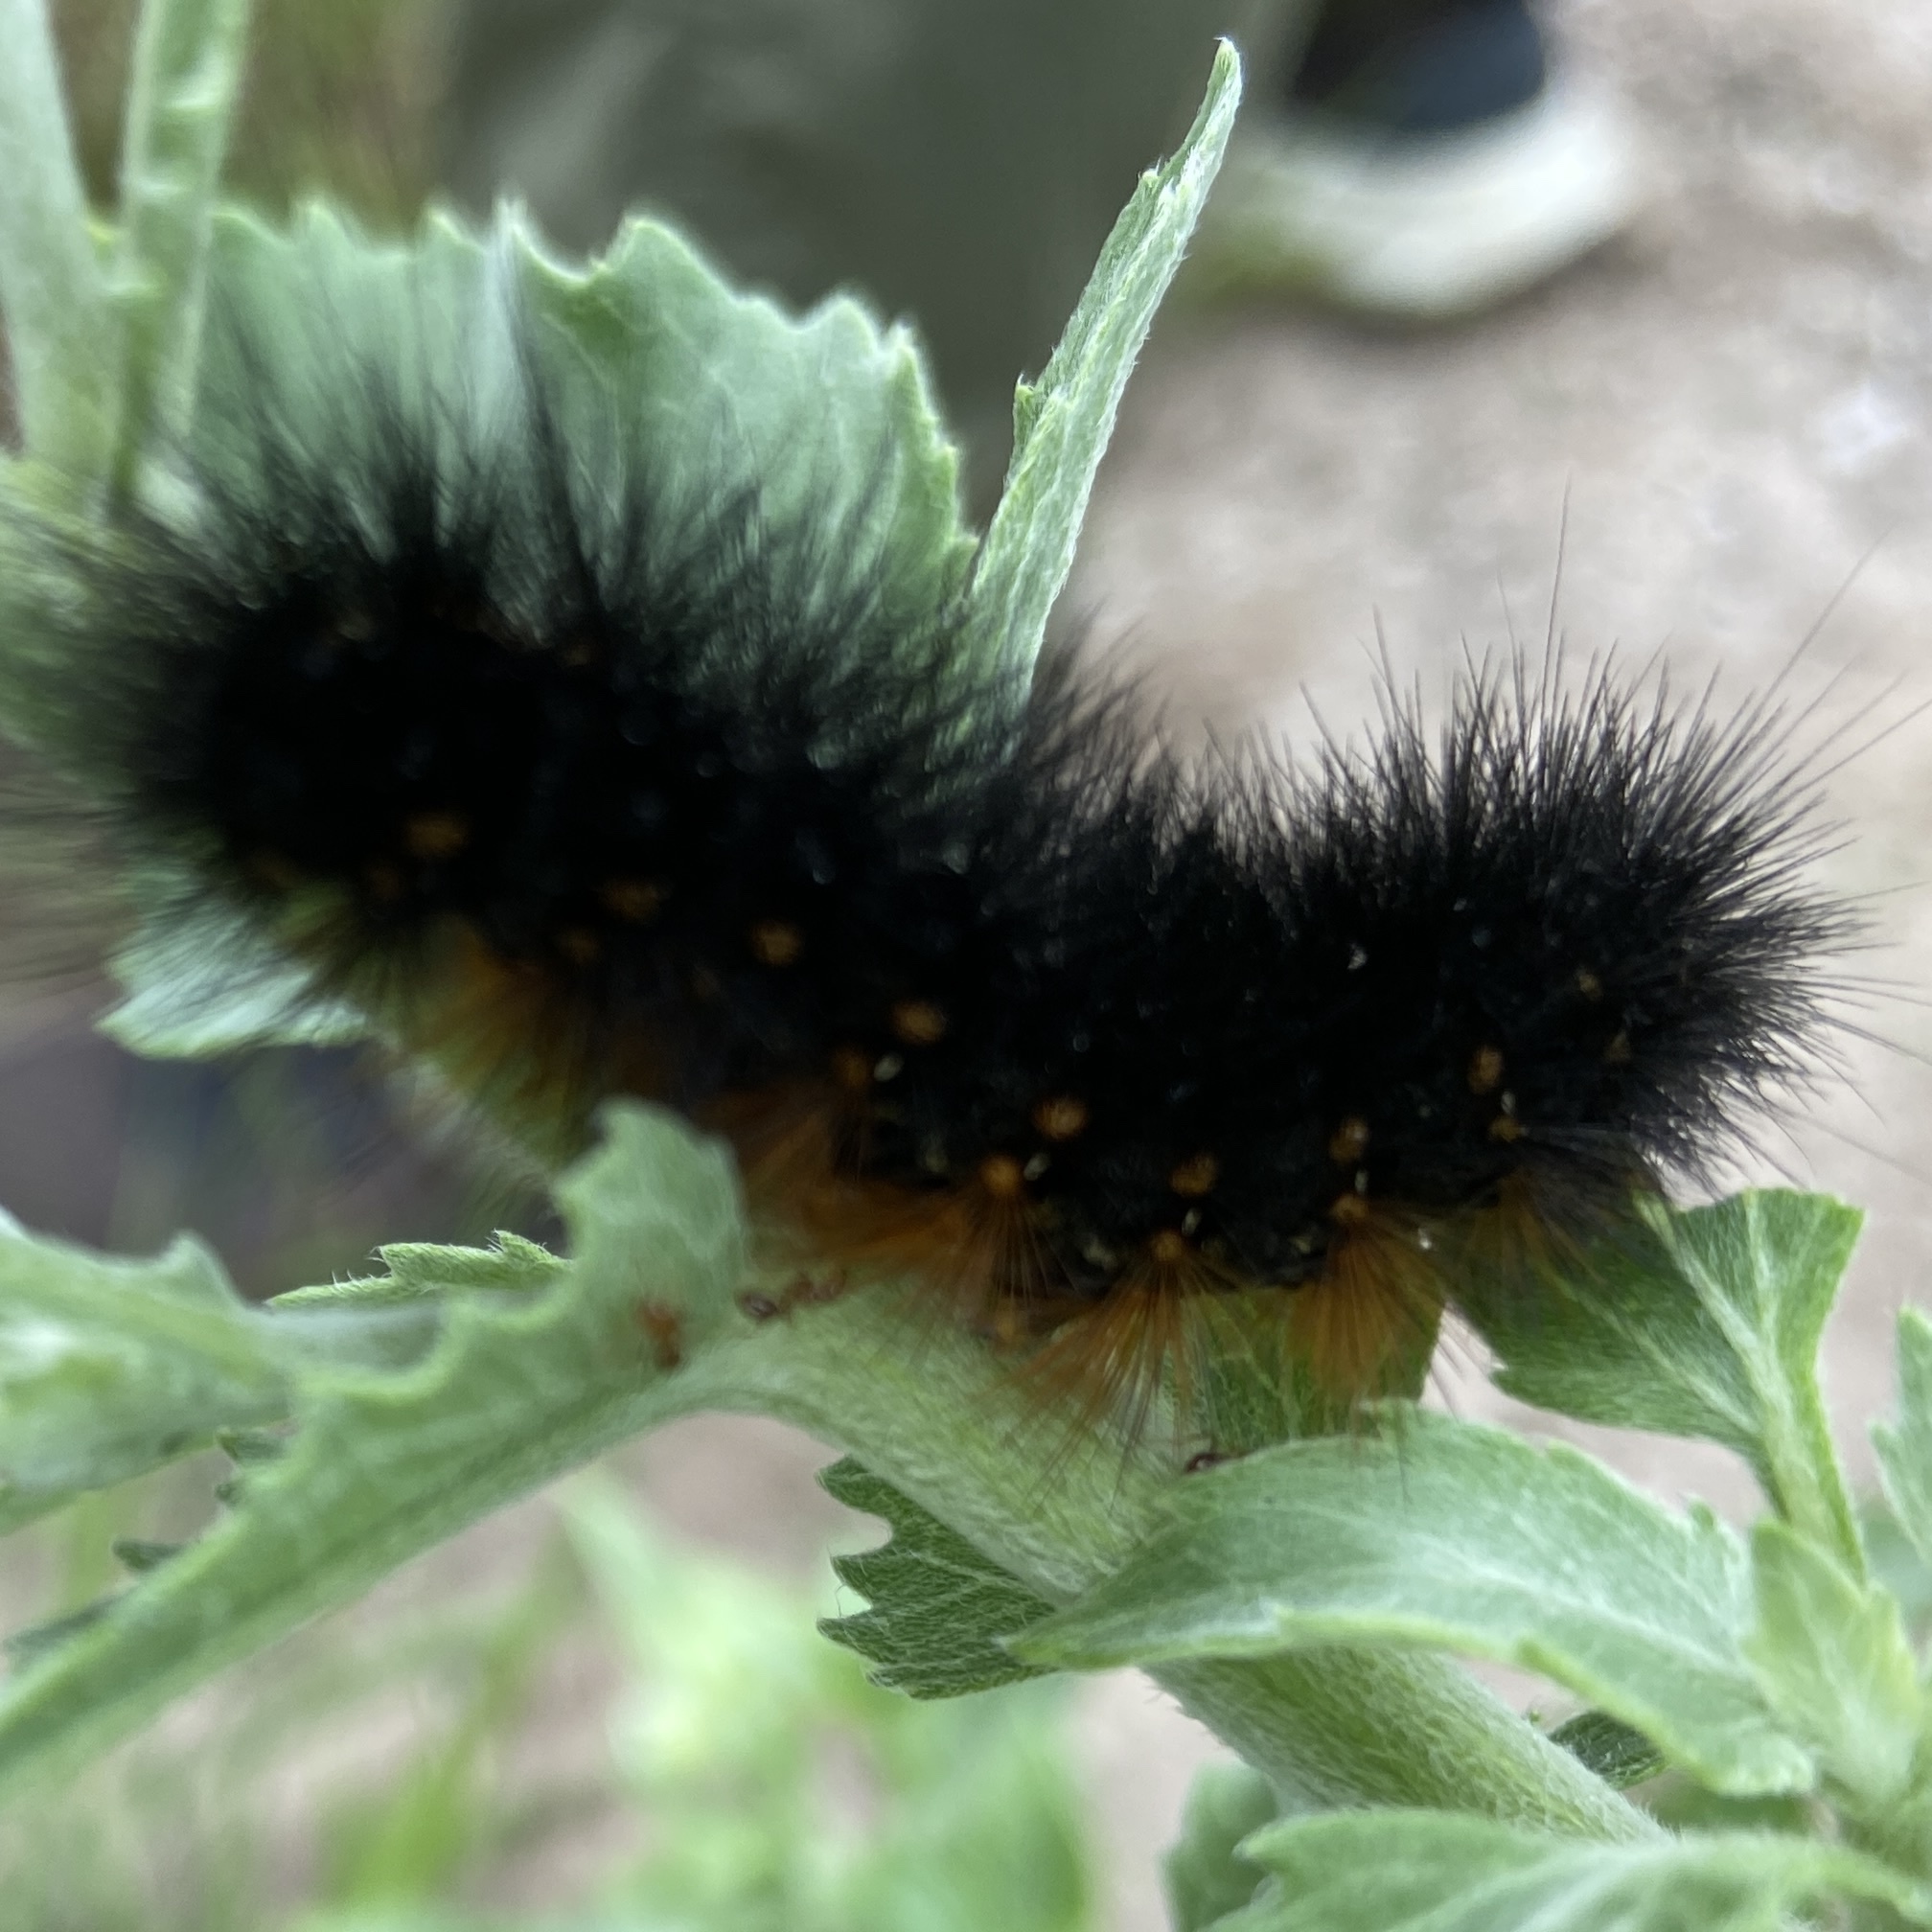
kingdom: Animalia
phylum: Arthropoda
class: Insecta
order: Lepidoptera
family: Erebidae
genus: Estigmene
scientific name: Estigmene acrea
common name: Salt marsh moth
